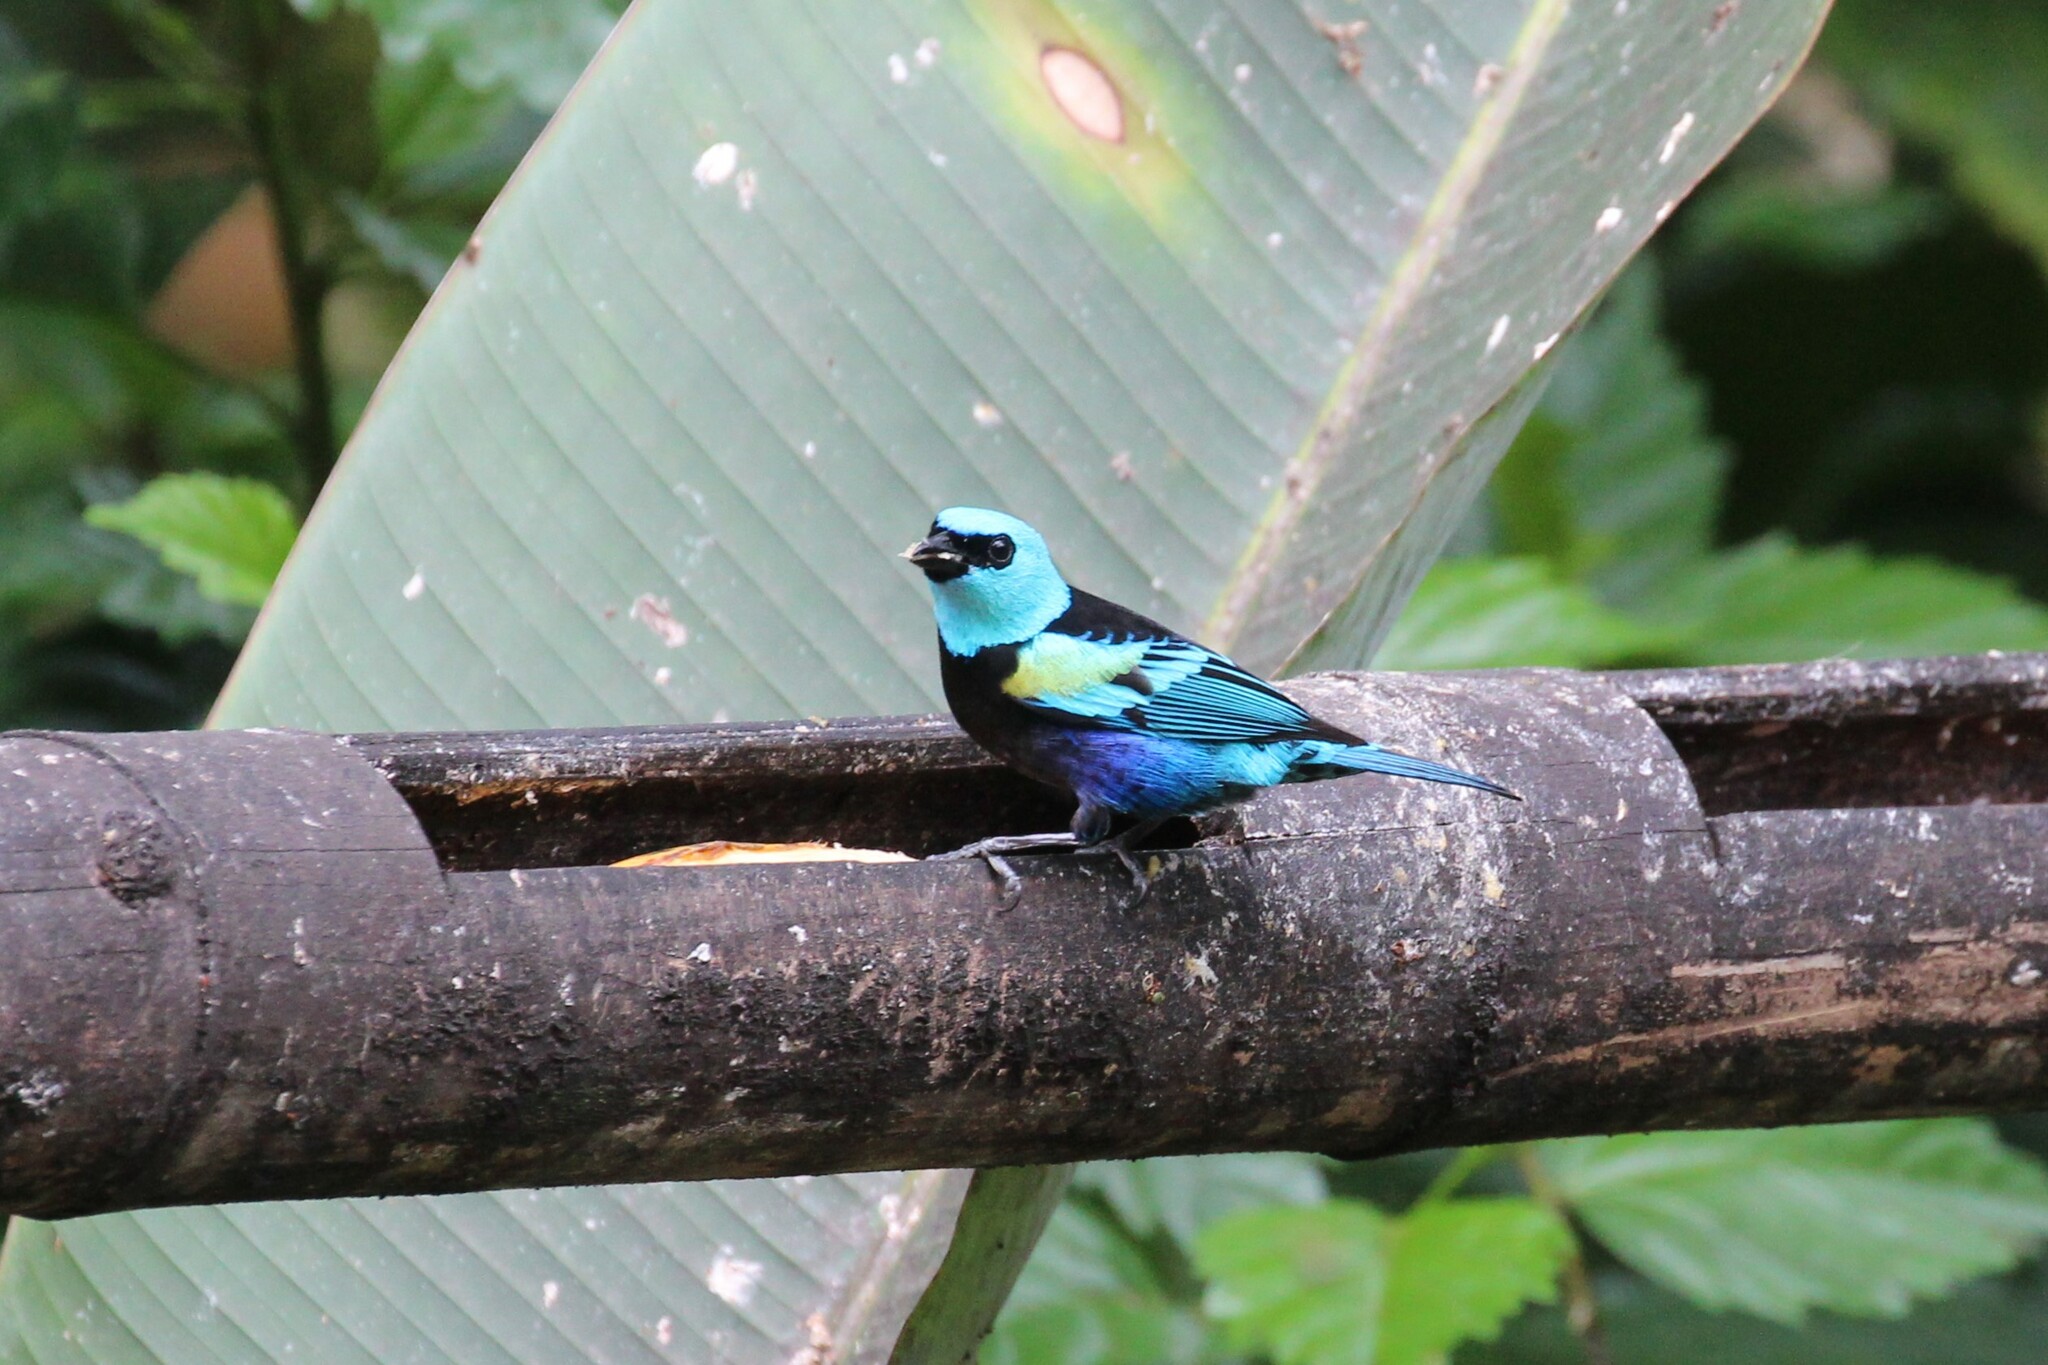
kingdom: Animalia
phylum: Chordata
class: Aves
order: Passeriformes
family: Thraupidae
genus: Stilpnia
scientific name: Stilpnia cyanicollis
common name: Blue-necked tanager
